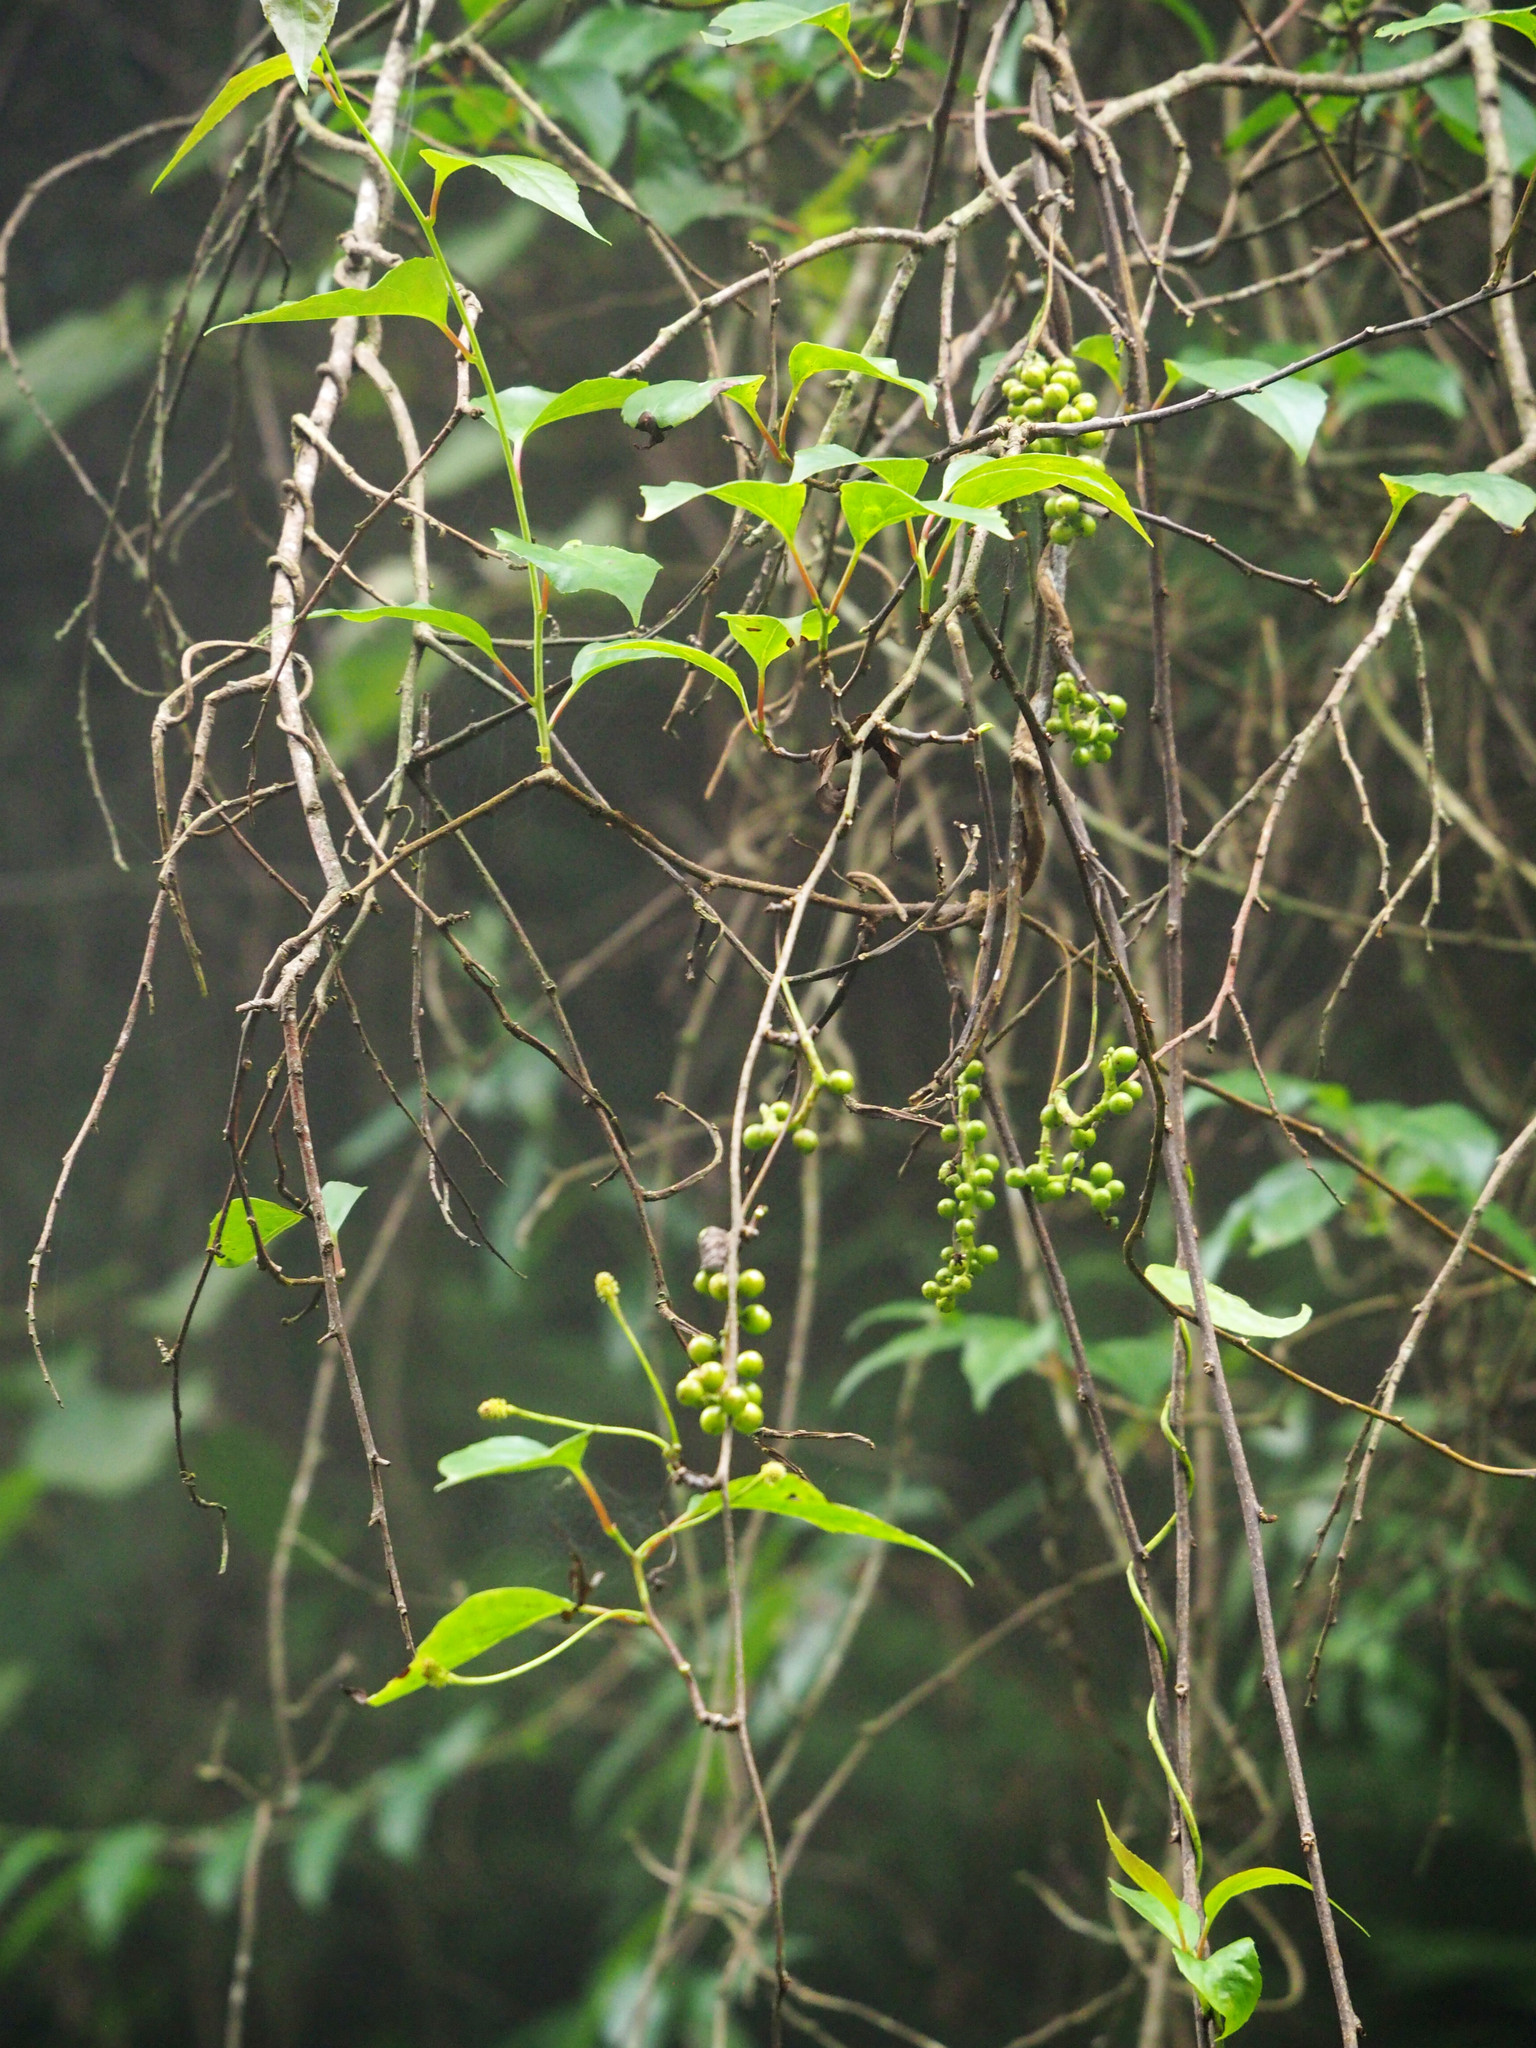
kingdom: Plantae
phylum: Tracheophyta
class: Magnoliopsida
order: Austrobaileyales
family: Schisandraceae
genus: Schisandra
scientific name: Schisandra arisanensis
